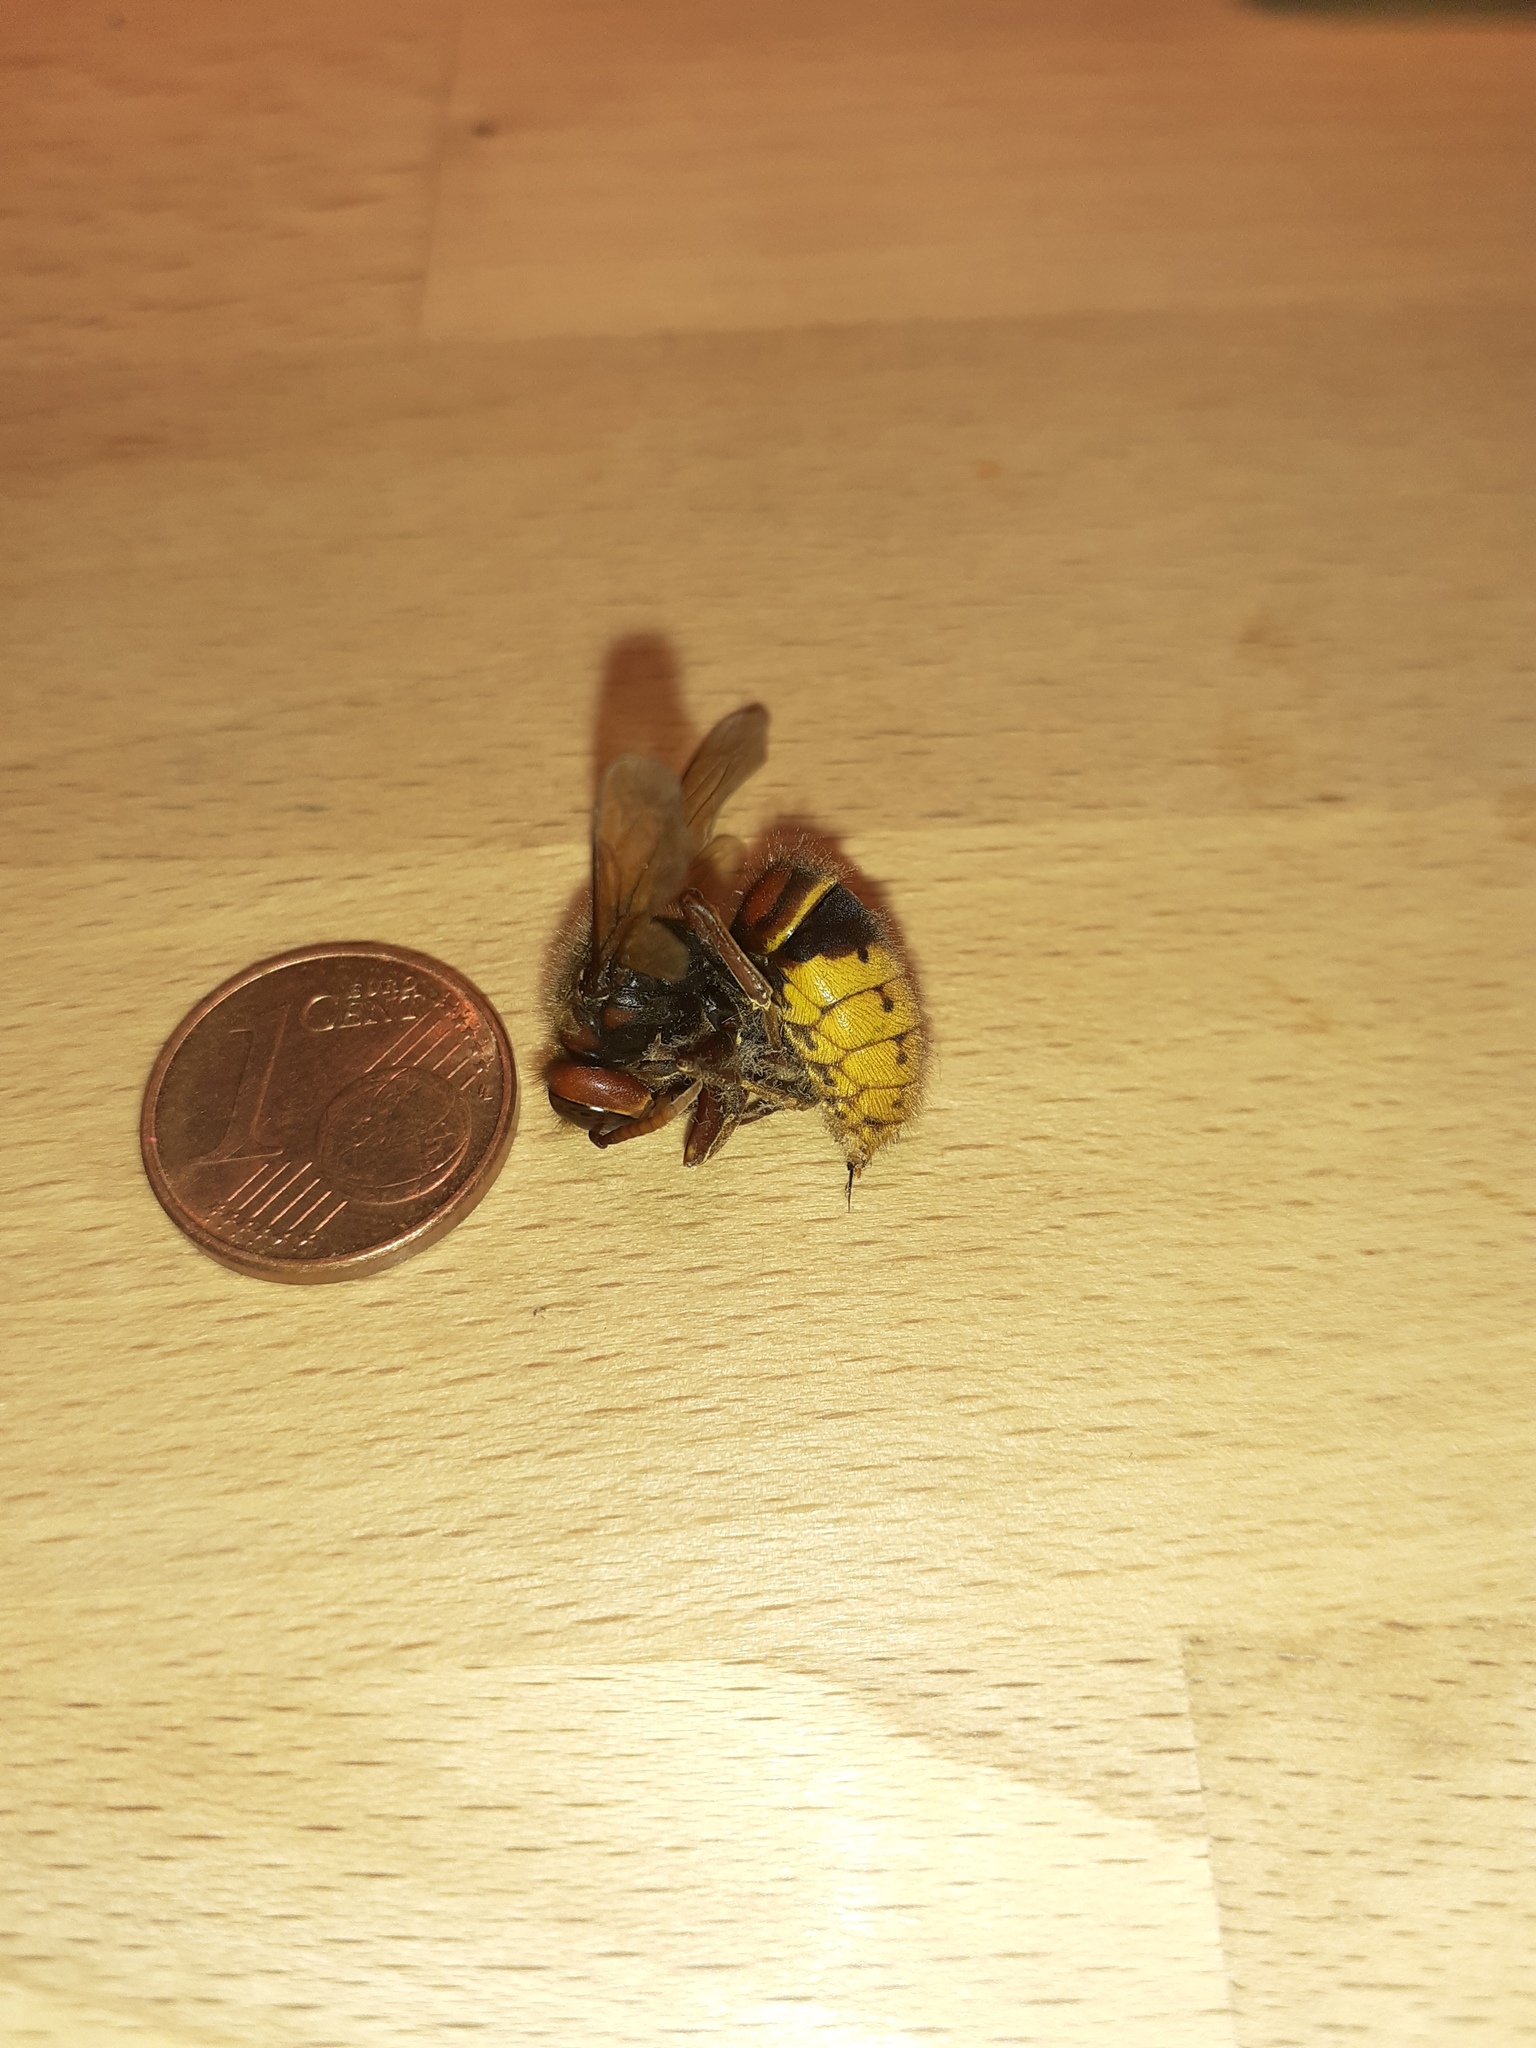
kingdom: Animalia
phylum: Arthropoda
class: Insecta
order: Hymenoptera
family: Vespidae
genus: Vespa
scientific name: Vespa crabro
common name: Hornet
